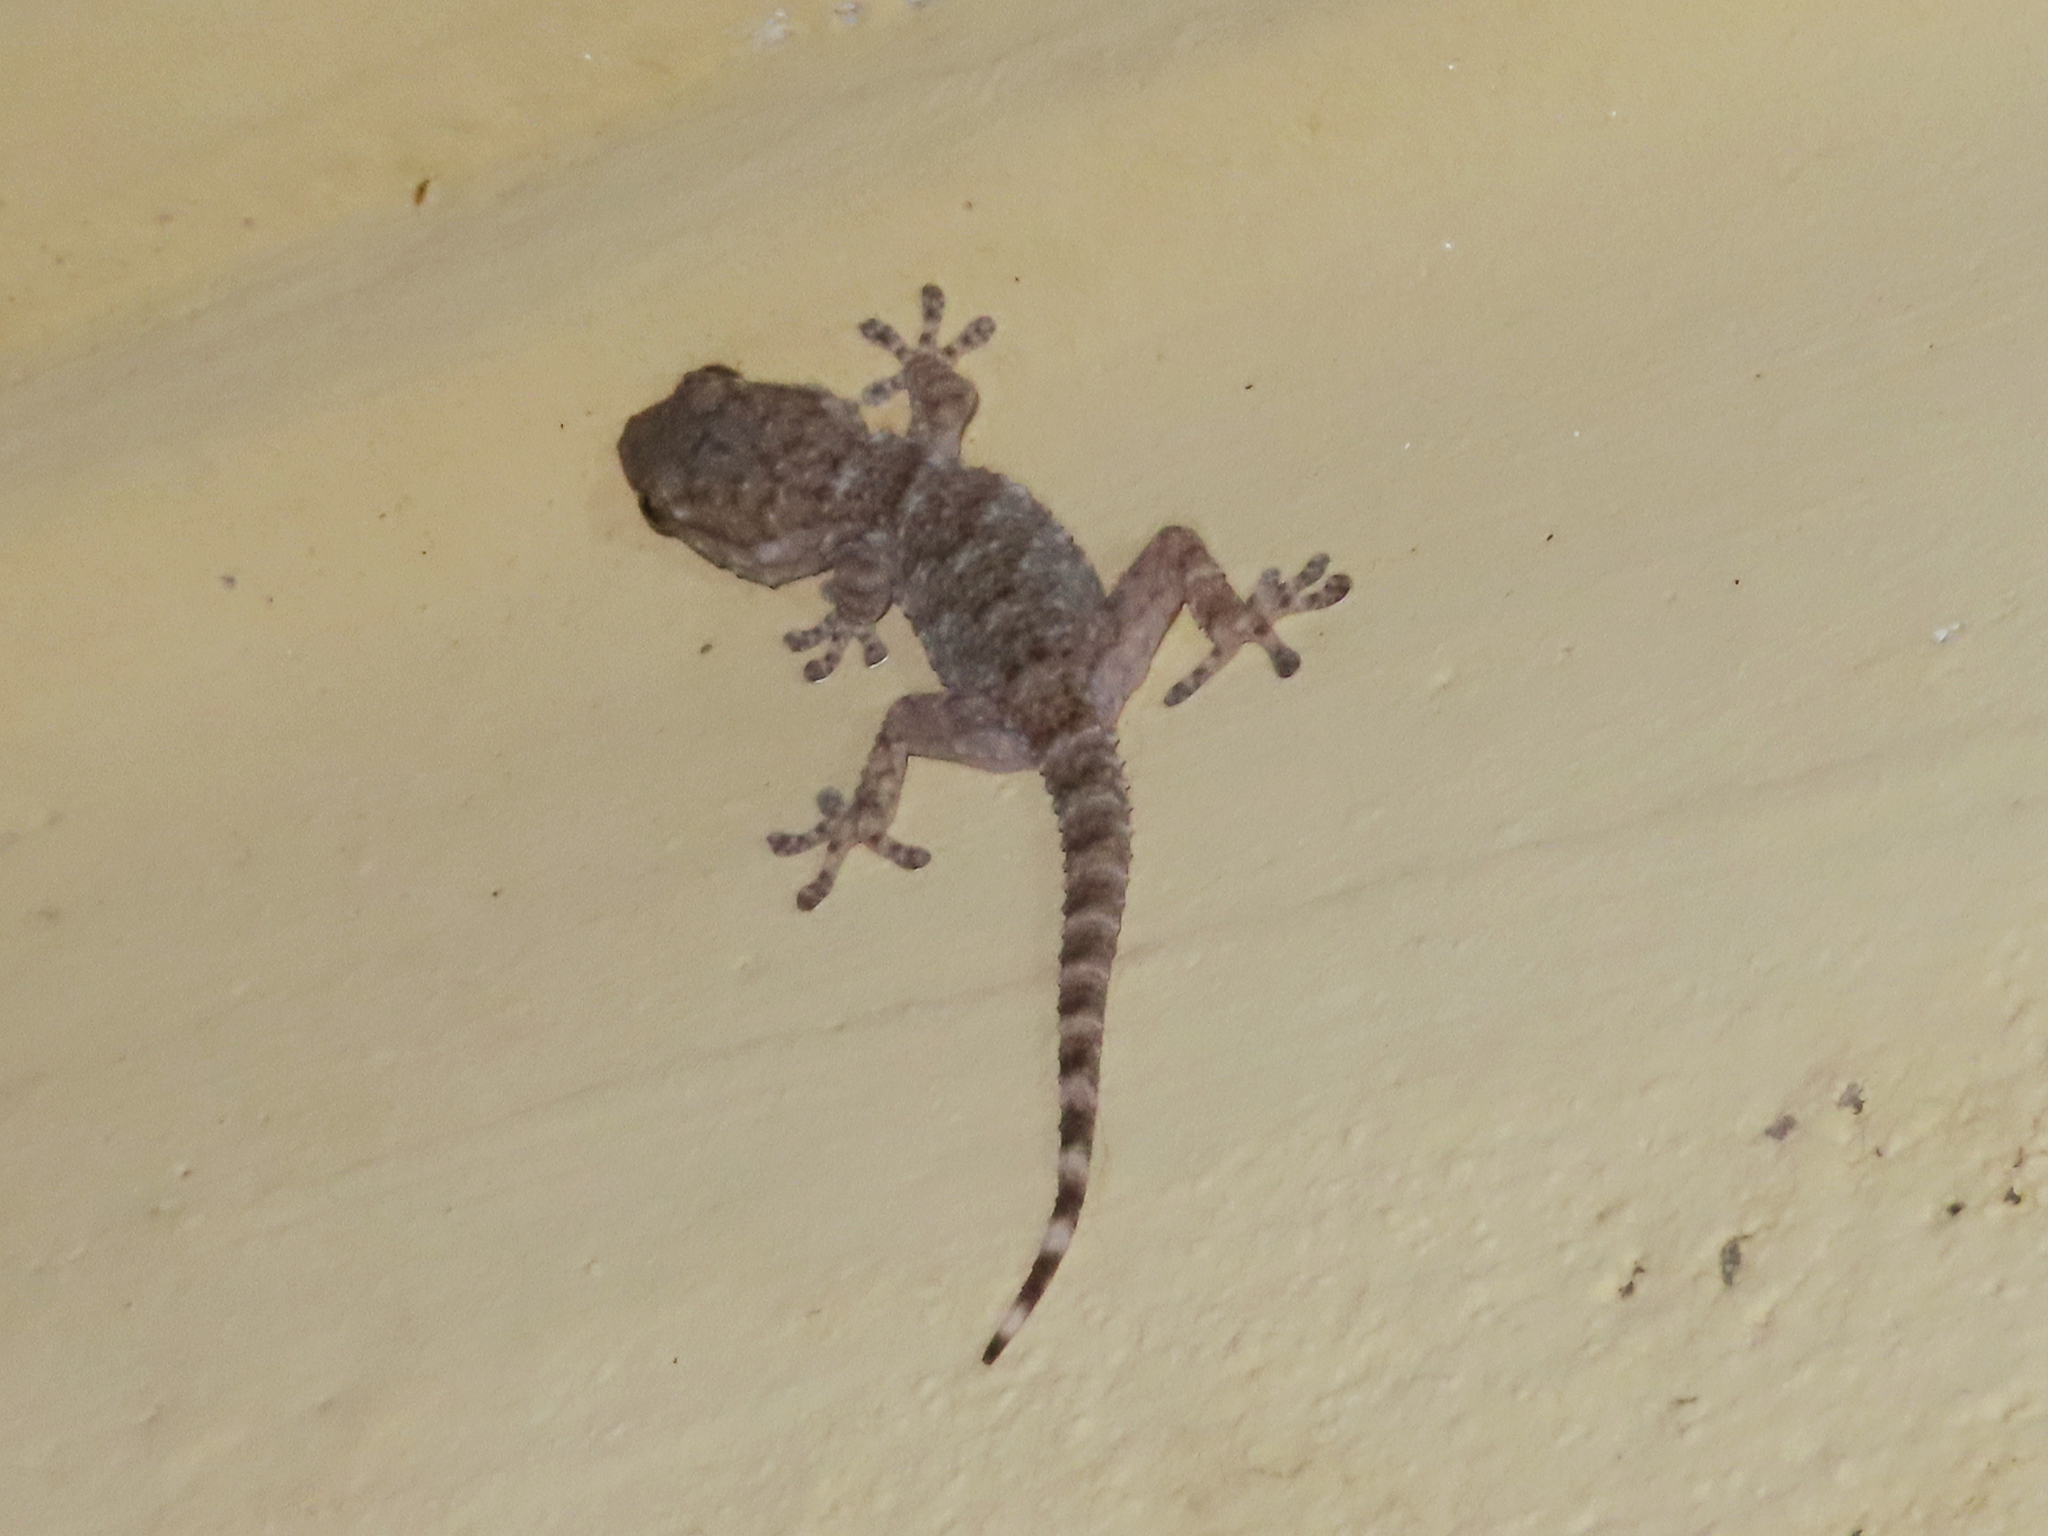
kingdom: Animalia
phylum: Chordata
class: Squamata
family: Phyllodactylidae
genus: Tarentola
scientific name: Tarentola mauritanica
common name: Moorish gecko
